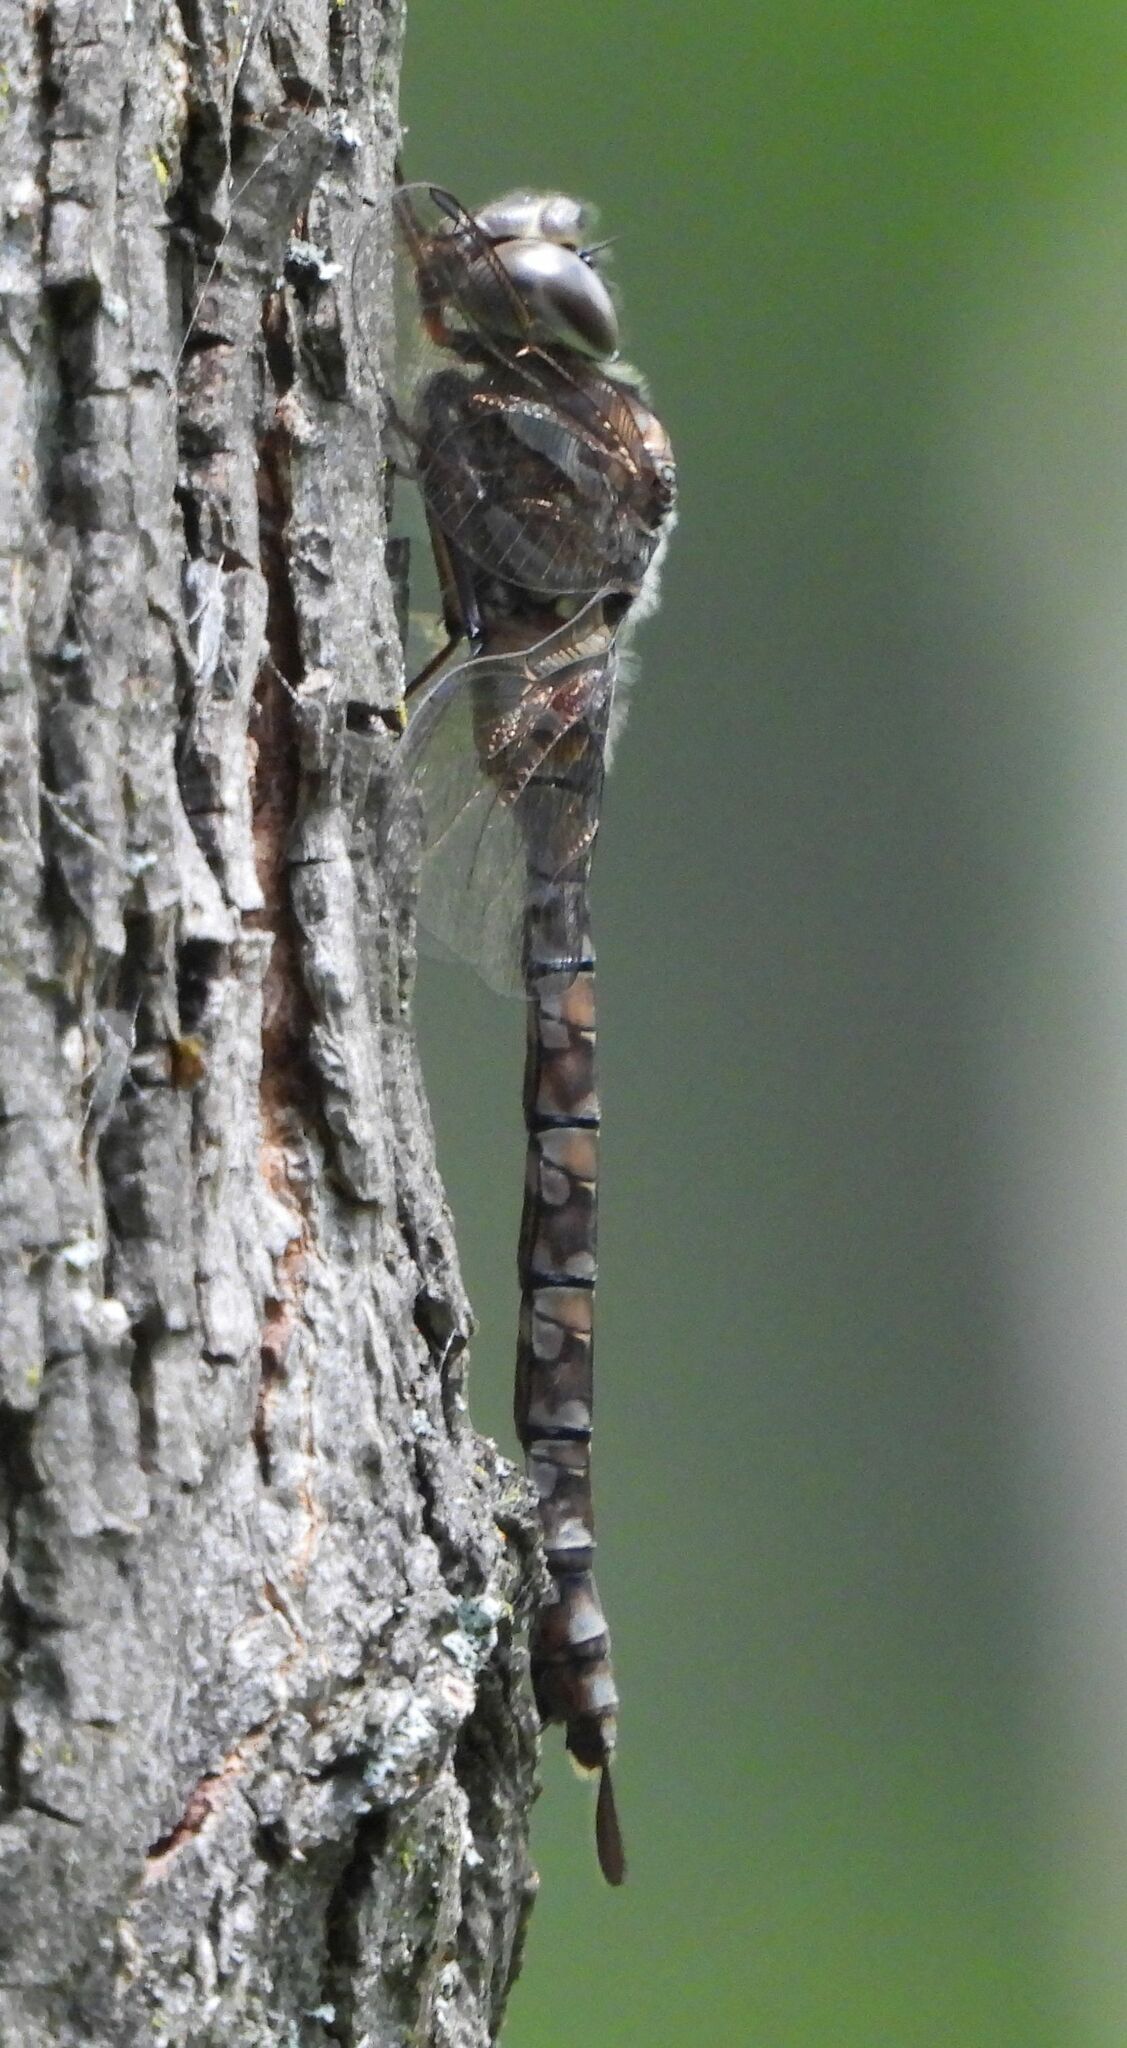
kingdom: Animalia
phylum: Arthropoda
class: Insecta
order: Odonata
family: Aeshnidae
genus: Aeshna
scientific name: Aeshna canadensis
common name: Canada darner
